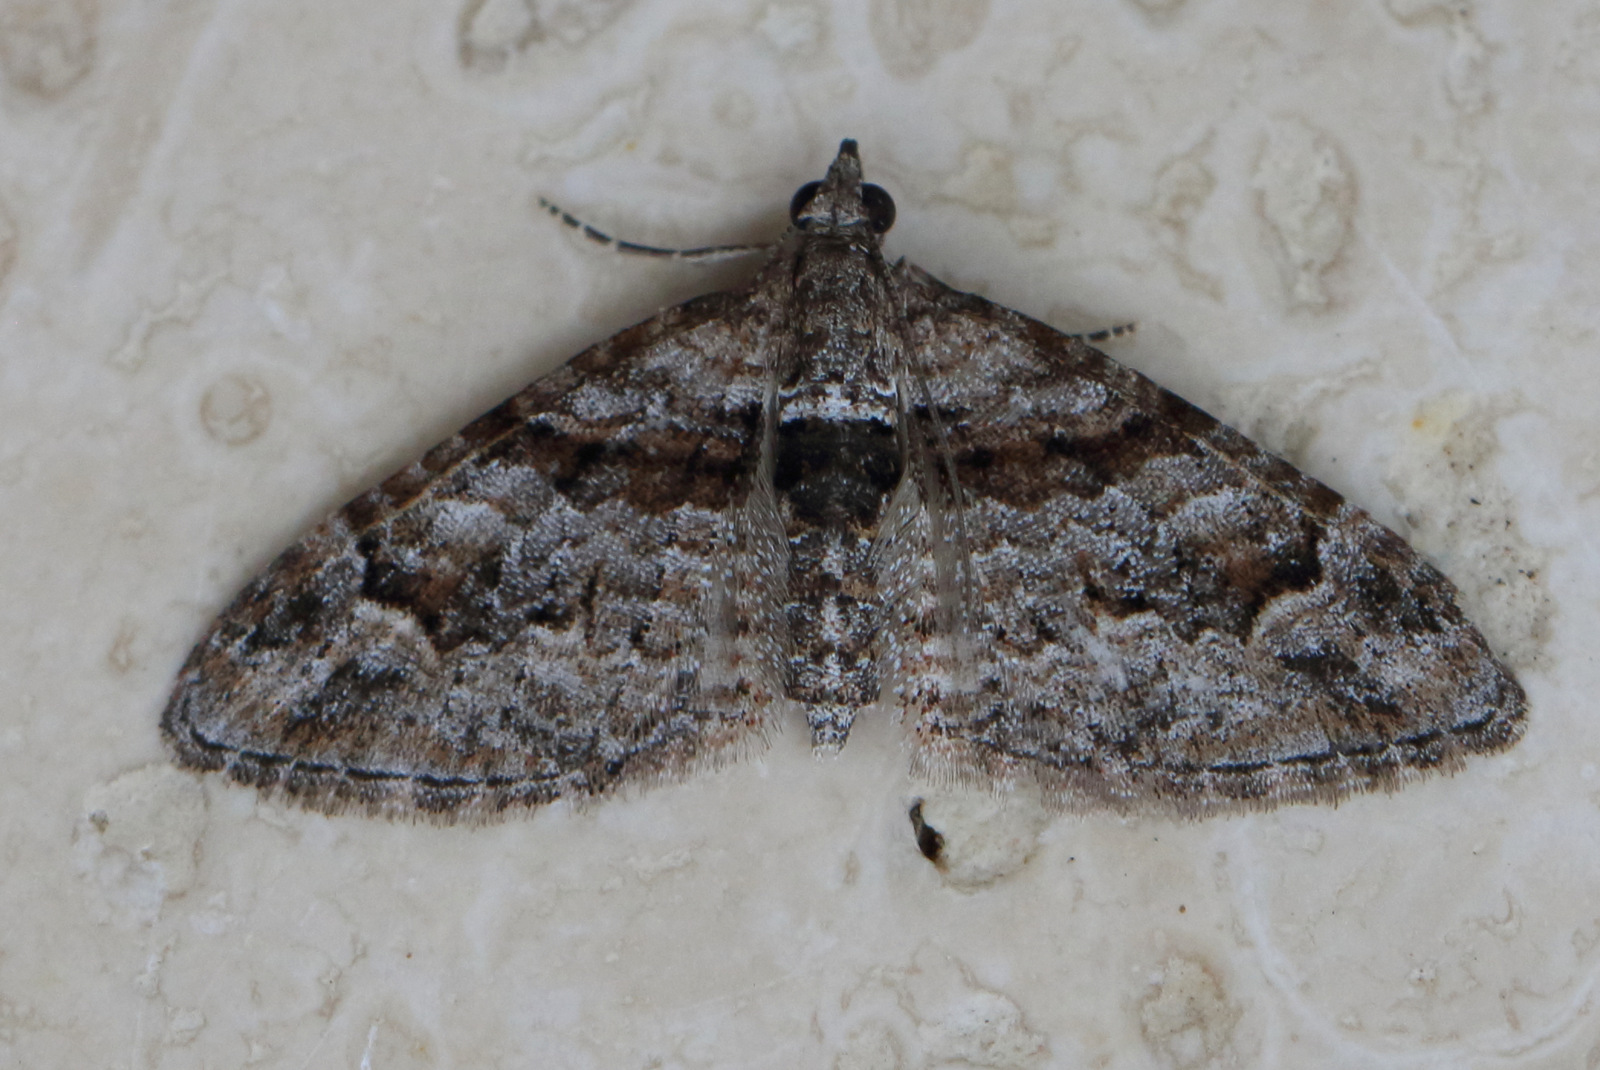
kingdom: Animalia
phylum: Arthropoda
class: Insecta
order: Lepidoptera
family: Geometridae
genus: Phrissogonus
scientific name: Phrissogonus laticostata
